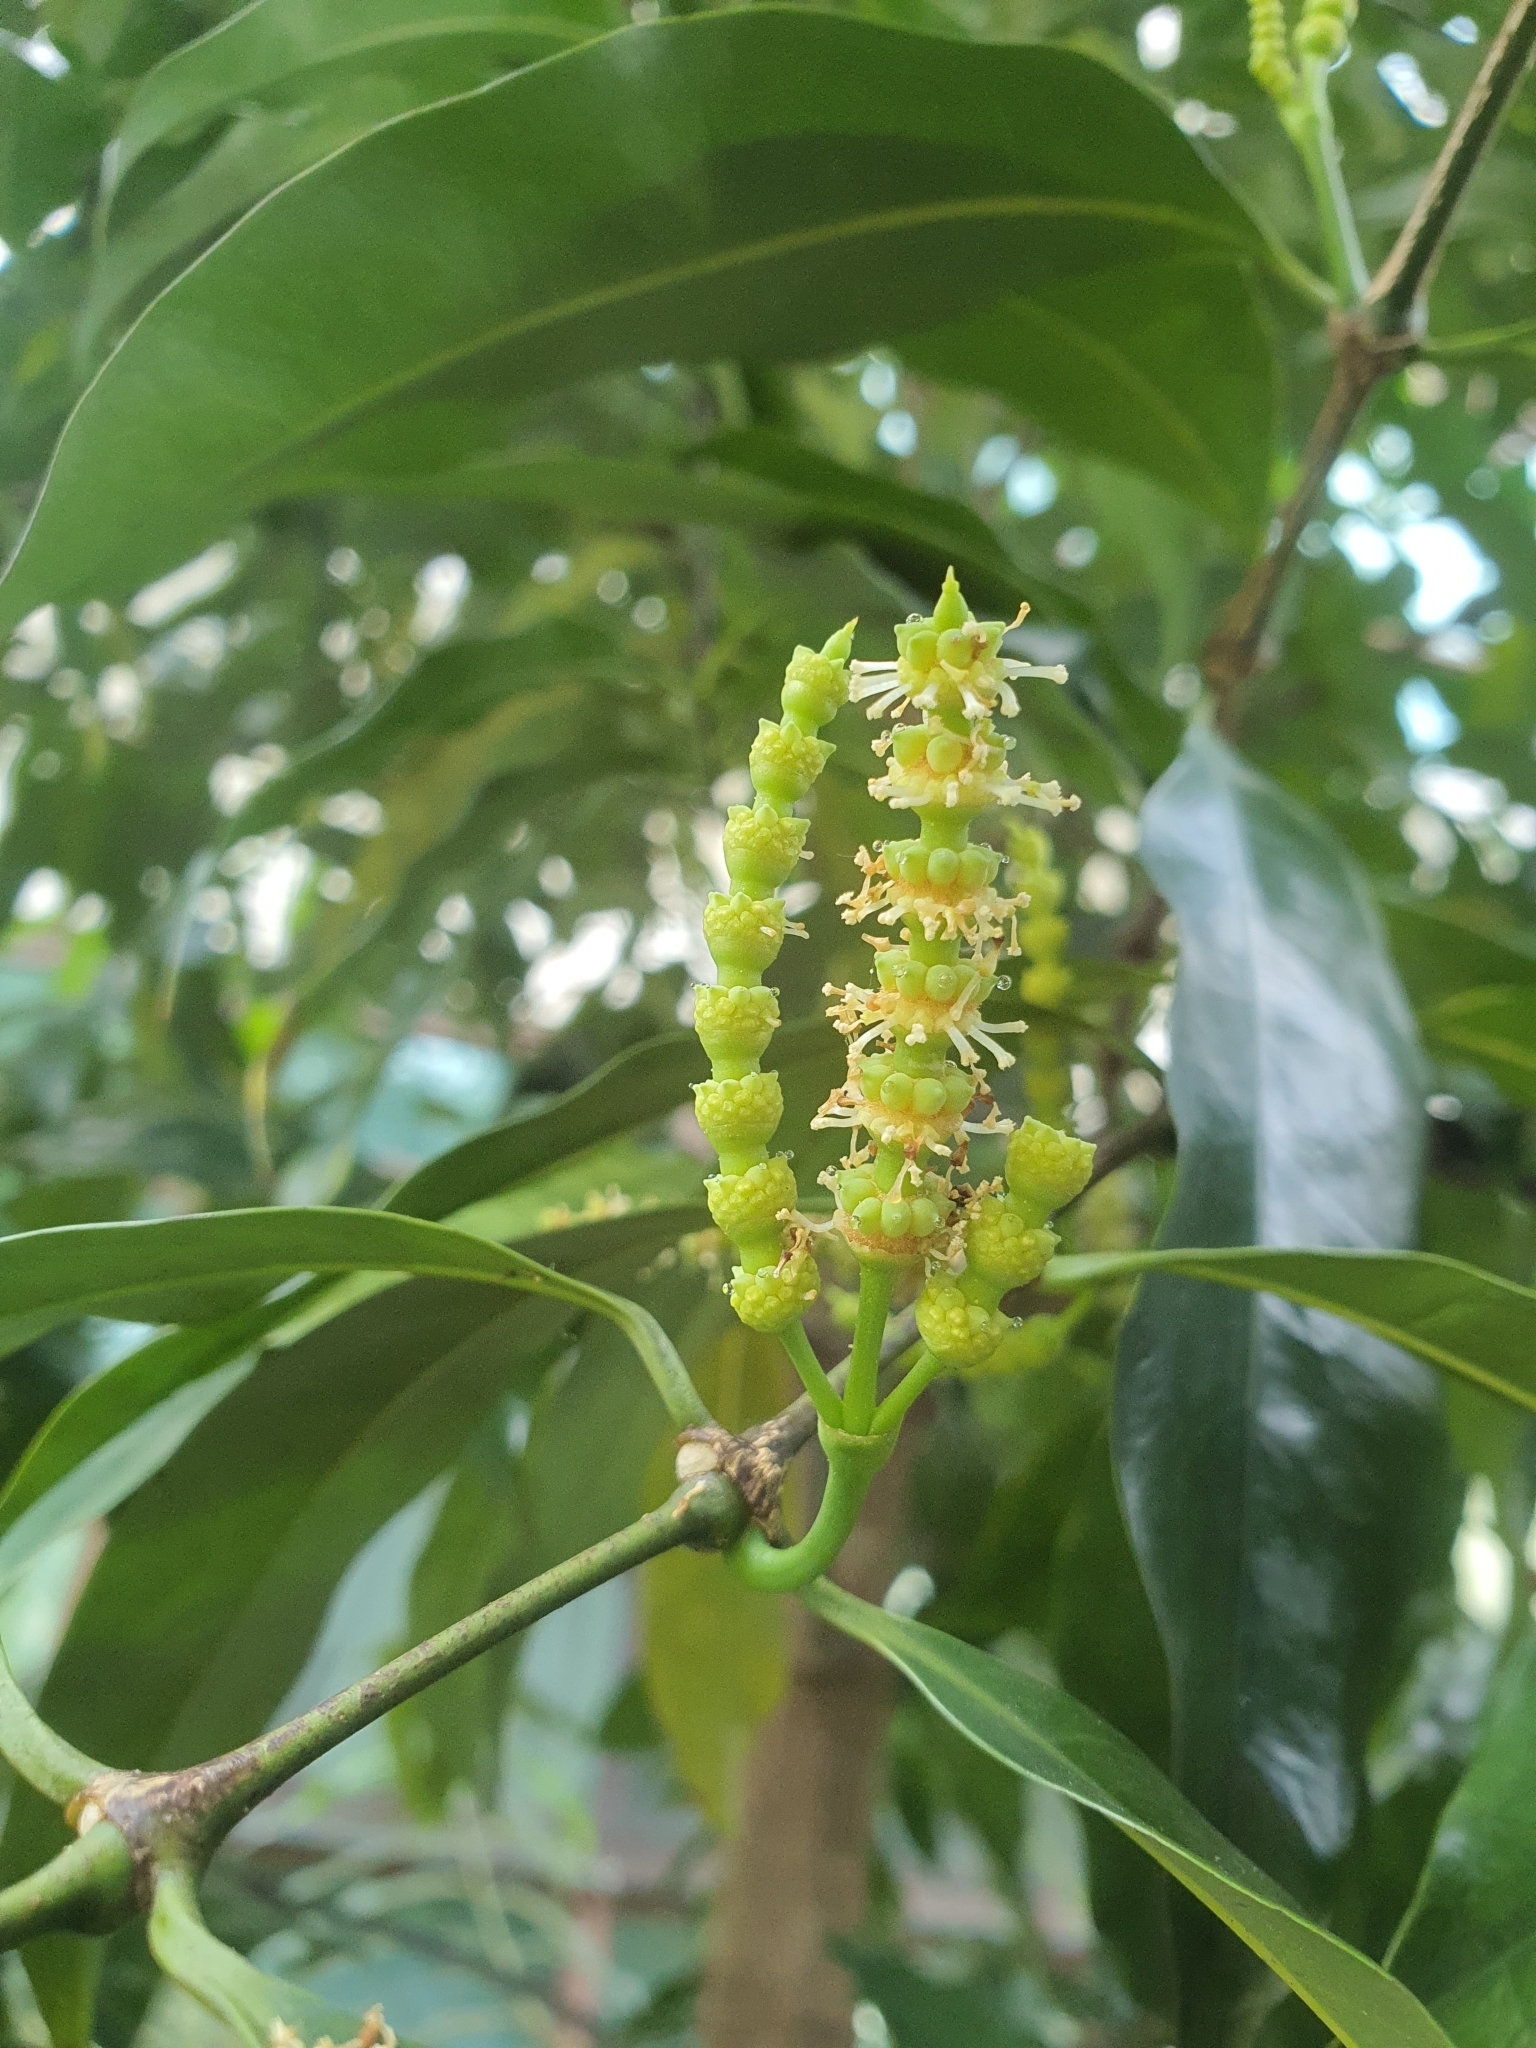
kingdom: Plantae
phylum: Tracheophyta
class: Gnetopsida
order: Gnetales
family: Gnetaceae
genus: Gnetum
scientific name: Gnetum gnemon
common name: Spanish joint-fir
